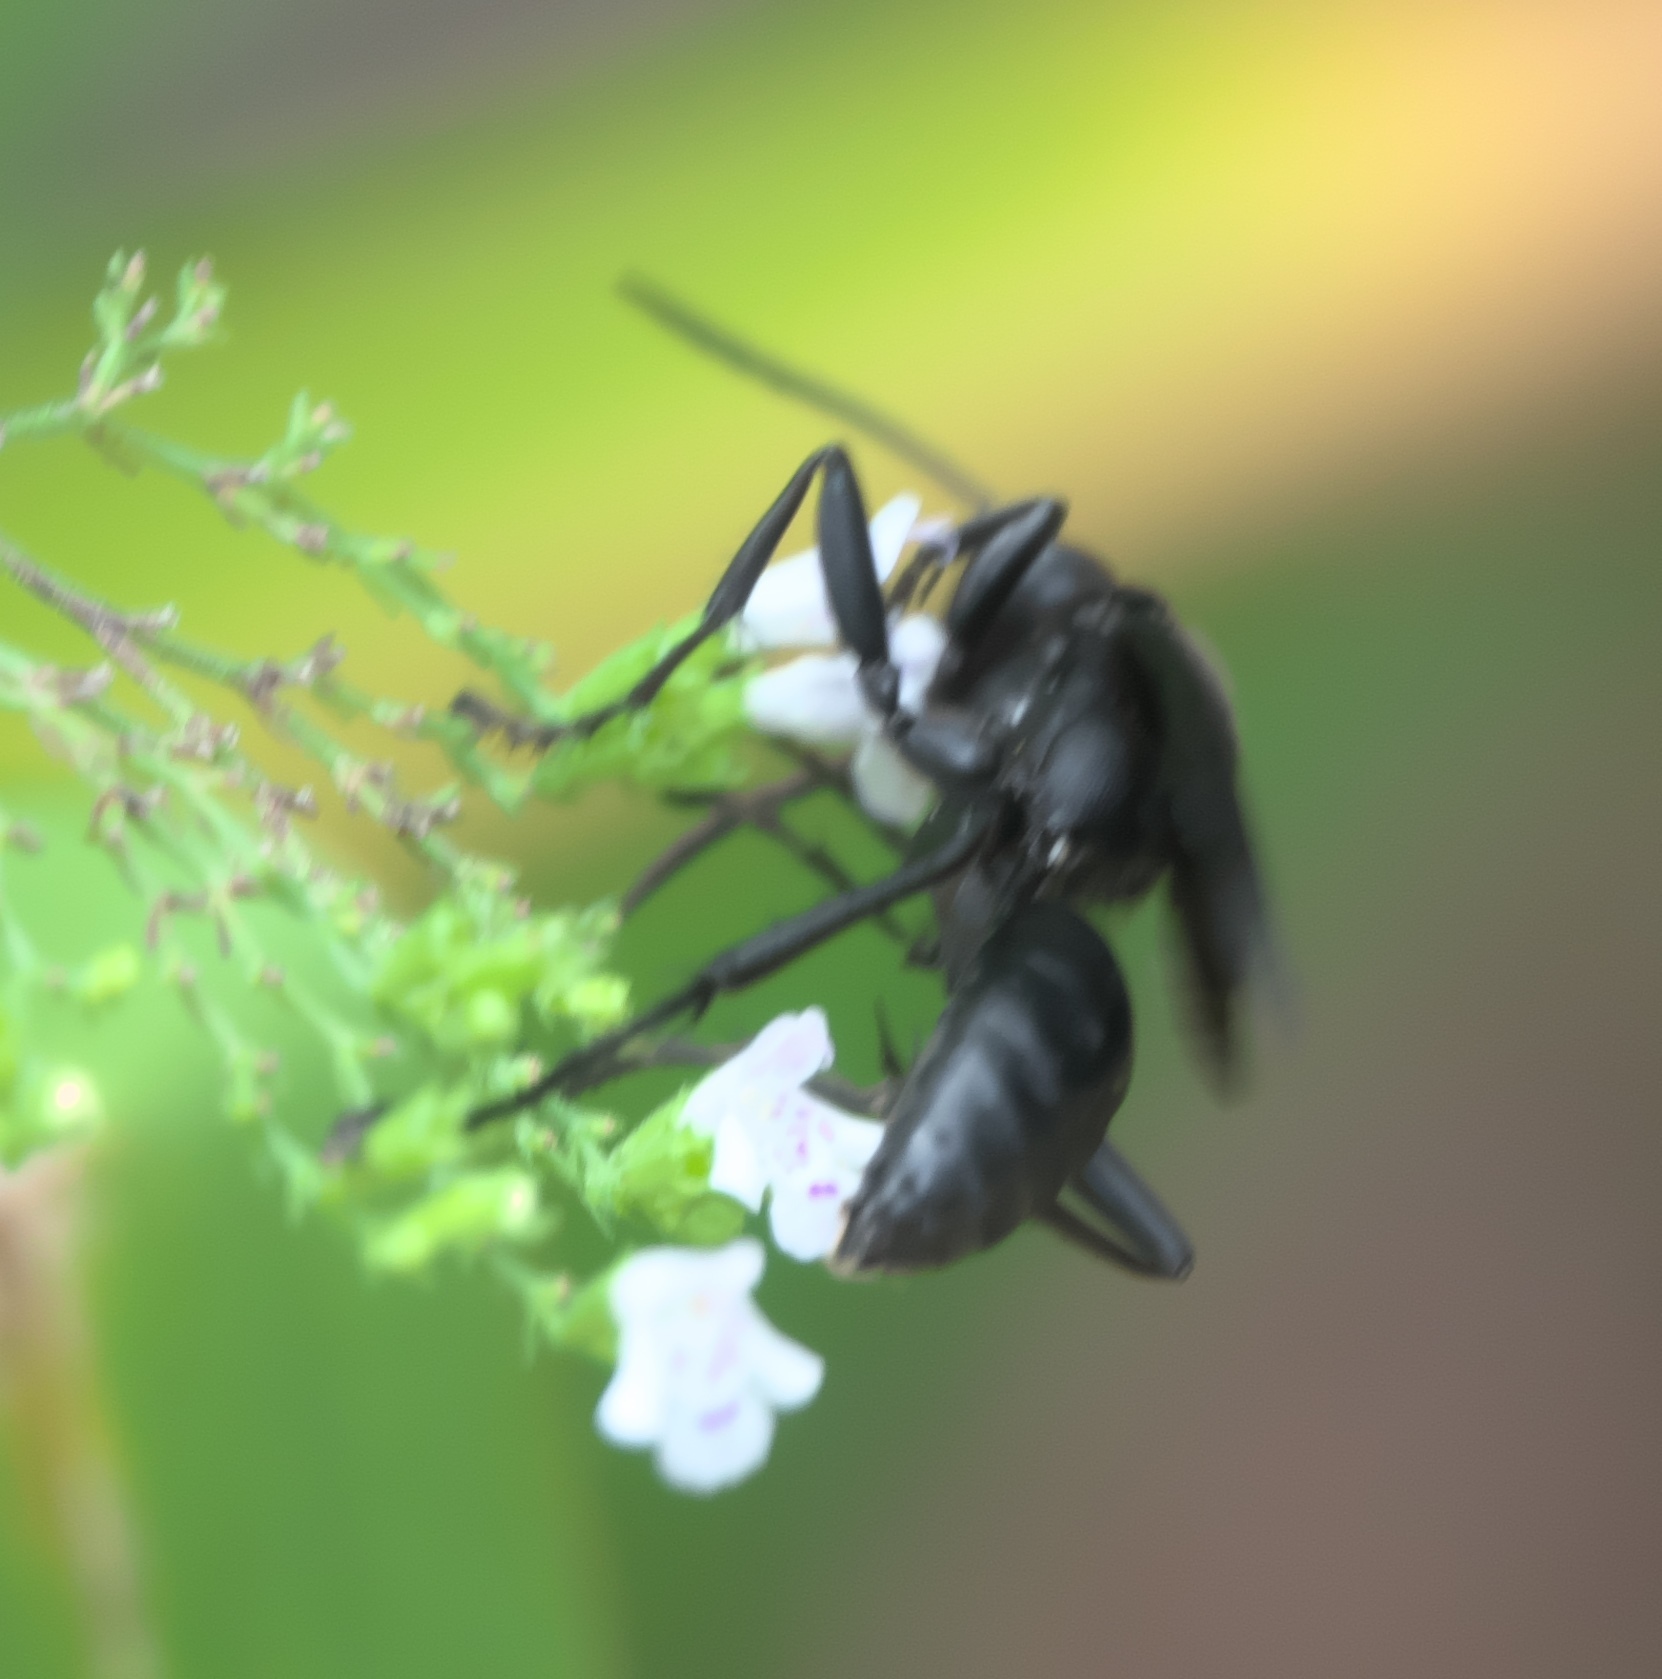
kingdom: Animalia
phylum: Arthropoda
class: Insecta
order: Hymenoptera
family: Sphecidae
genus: Sphex
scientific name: Sphex pensylvanicus
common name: Great black digger wasp
